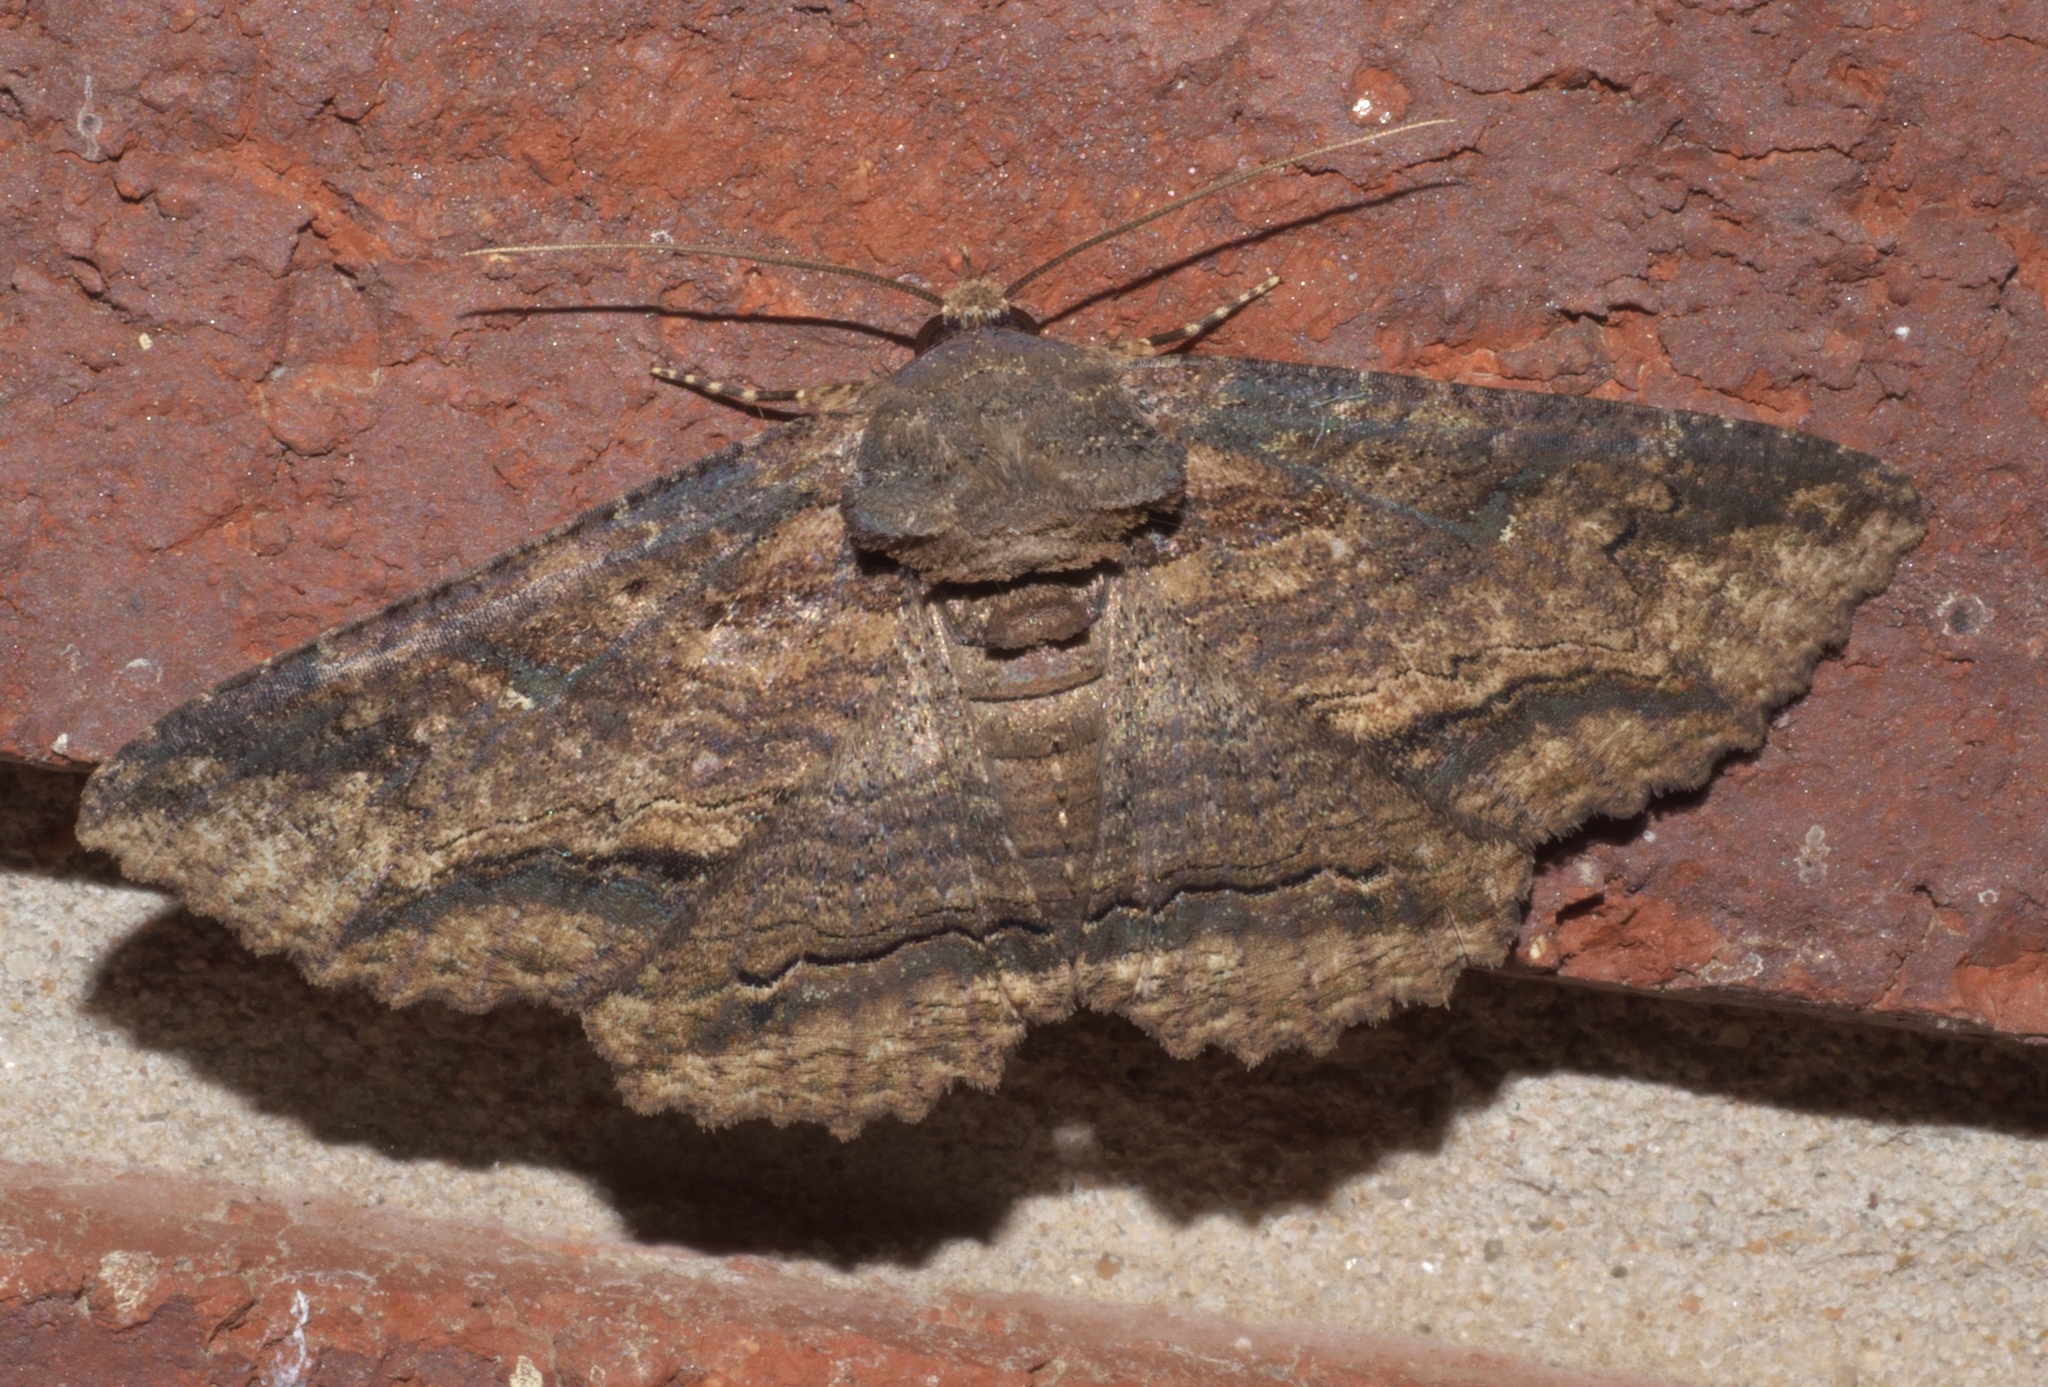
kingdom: Animalia
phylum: Arthropoda
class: Insecta
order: Lepidoptera
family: Erebidae
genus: Zale
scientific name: Zale lunata
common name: Lunate zale moth
